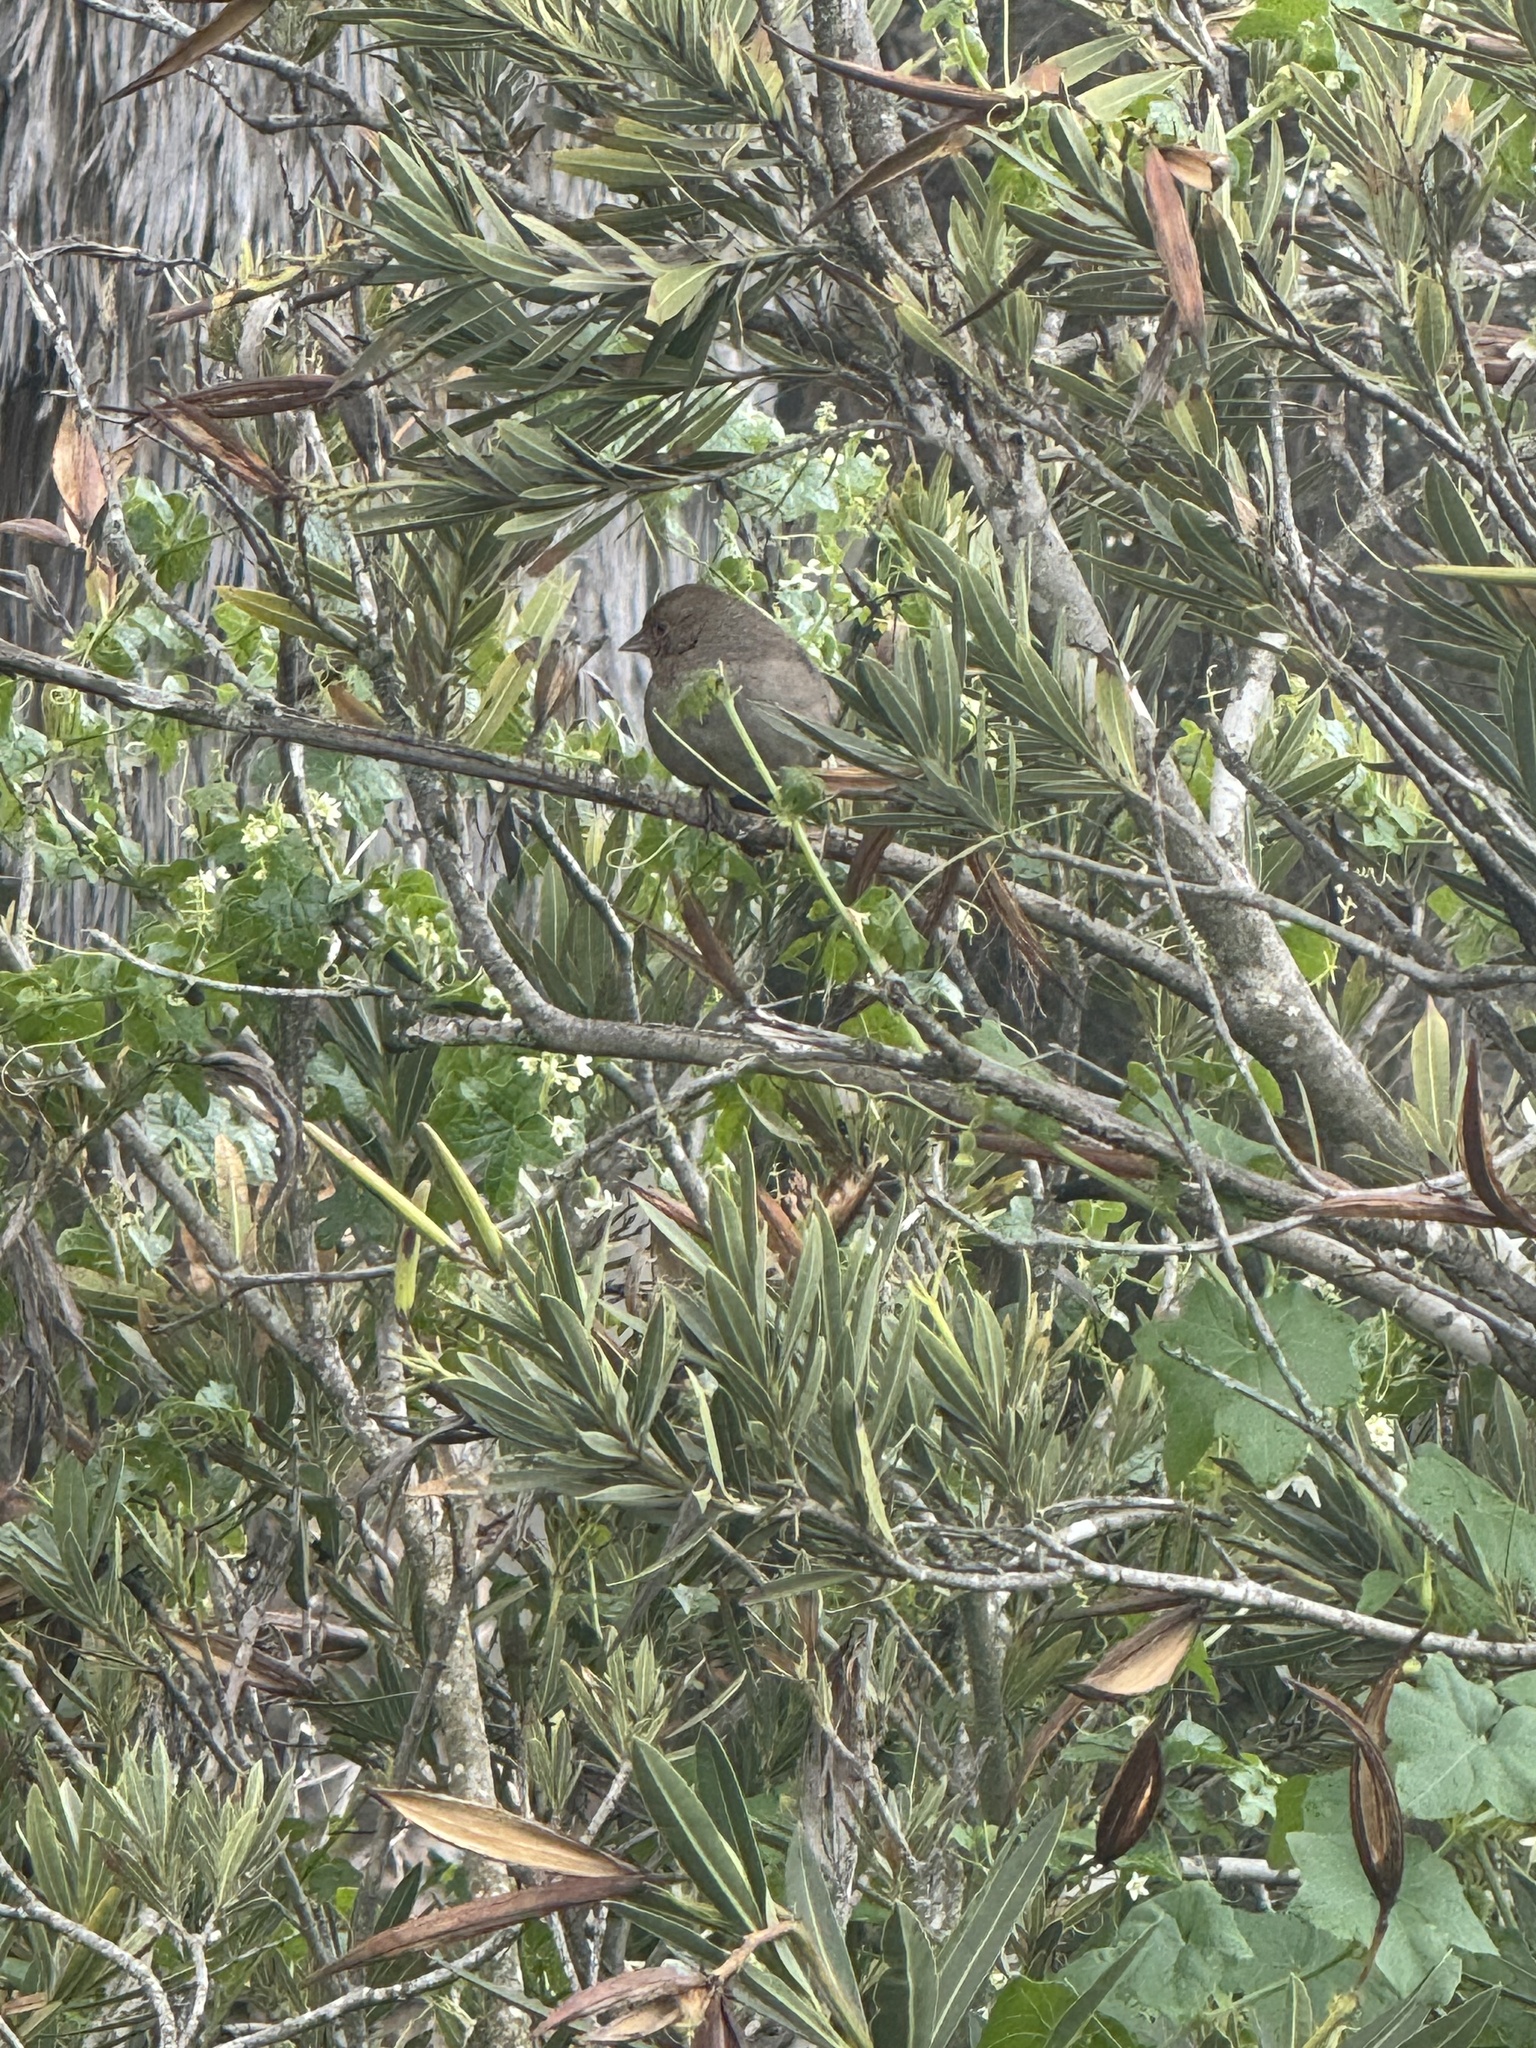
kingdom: Animalia
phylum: Chordata
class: Aves
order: Passeriformes
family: Passerellidae
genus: Melozone
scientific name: Melozone crissalis
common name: California towhee
